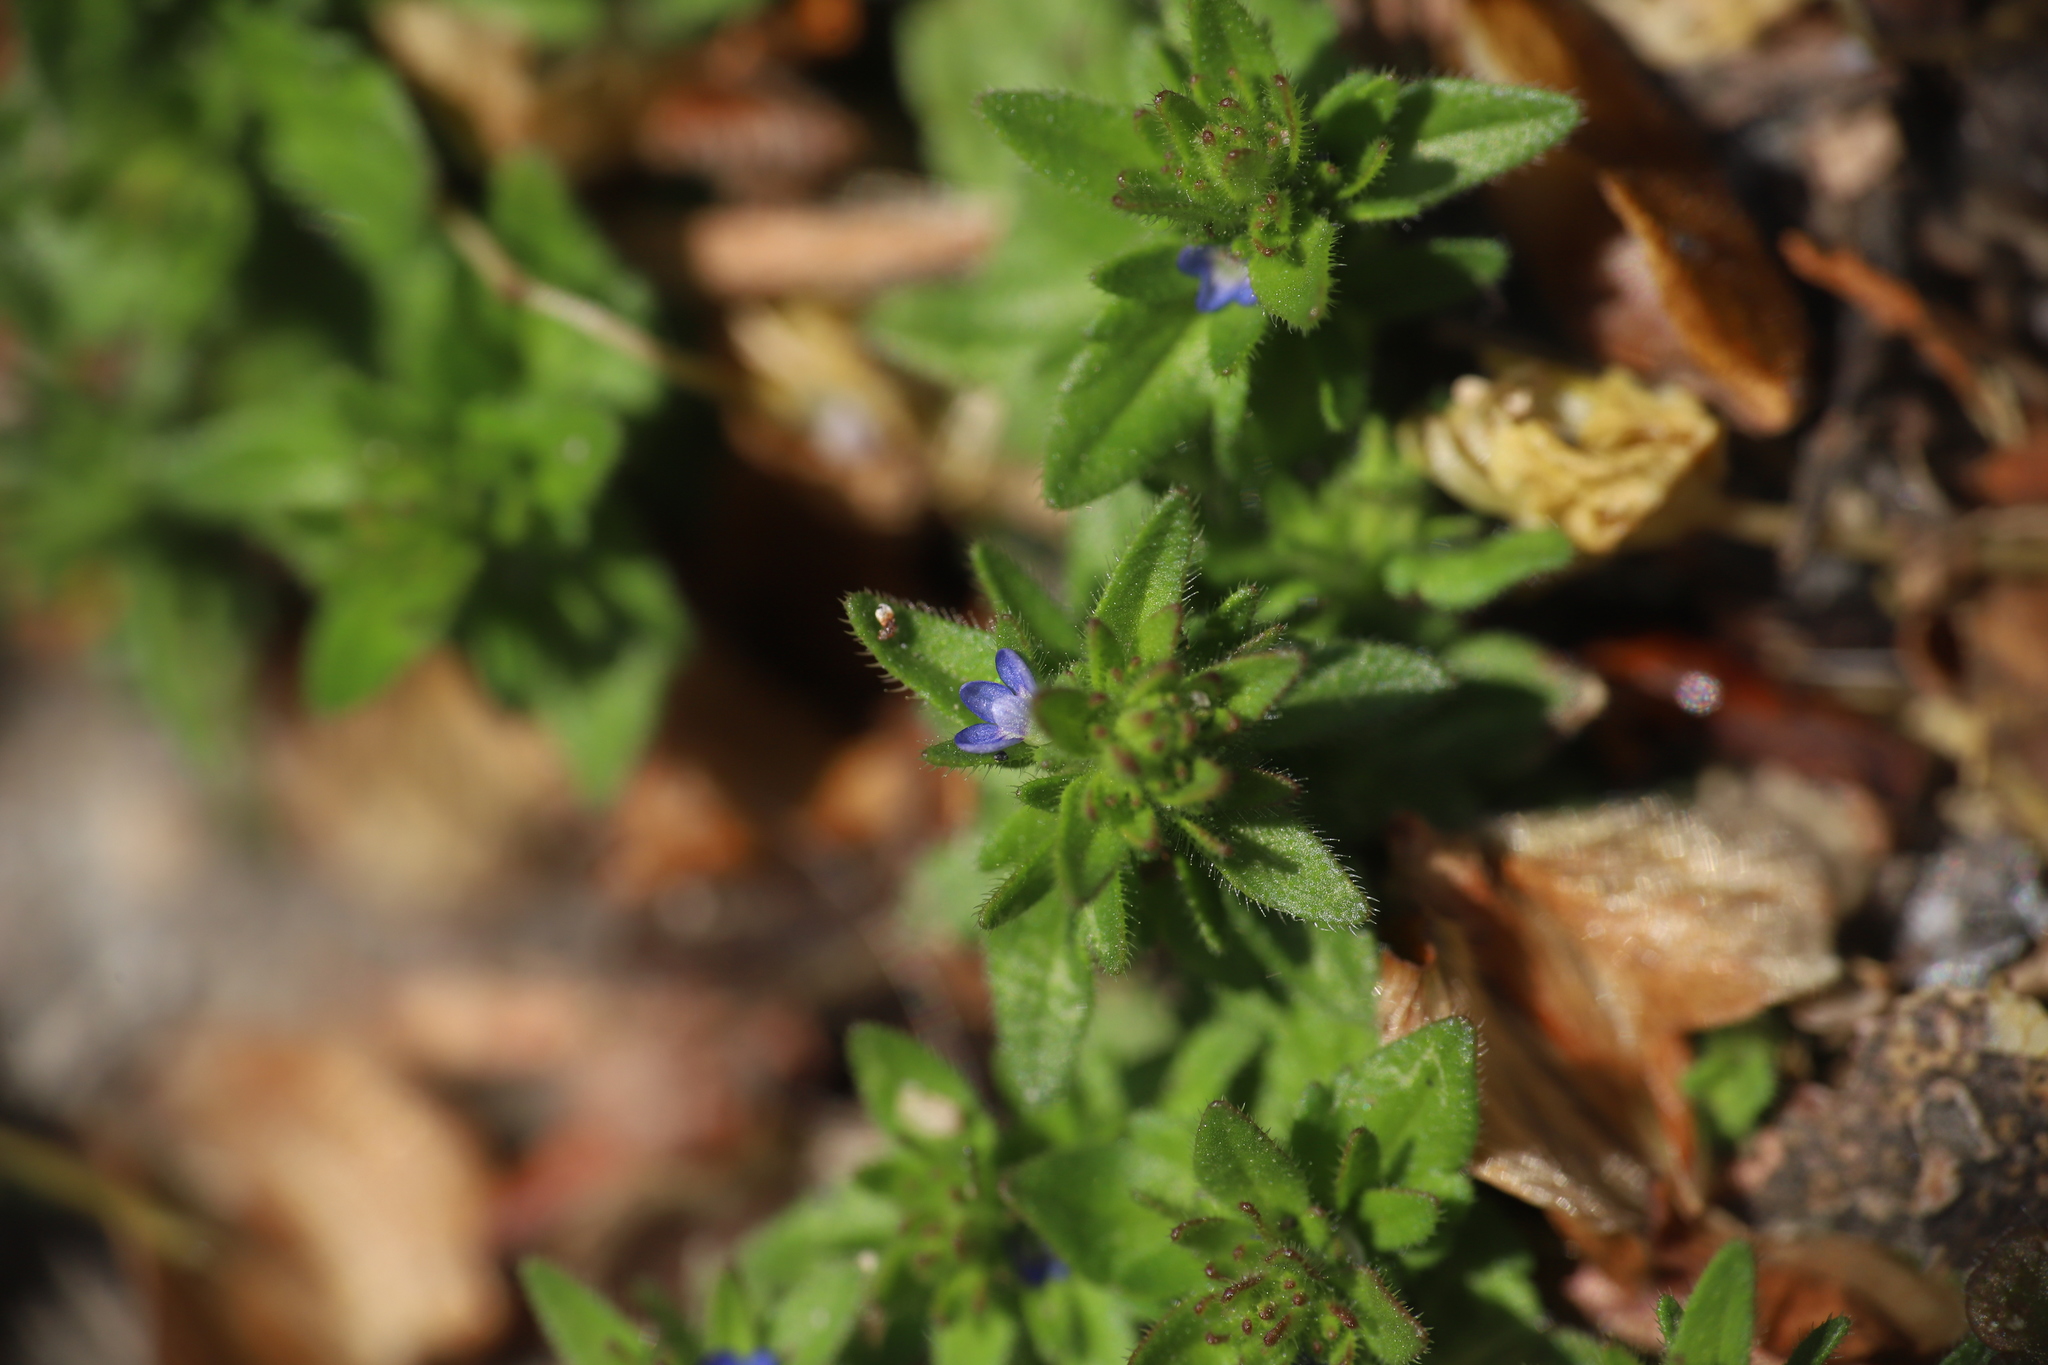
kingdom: Plantae
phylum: Tracheophyta
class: Magnoliopsida
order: Lamiales
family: Plantaginaceae
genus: Veronica
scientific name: Veronica arvensis
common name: Corn speedwell
